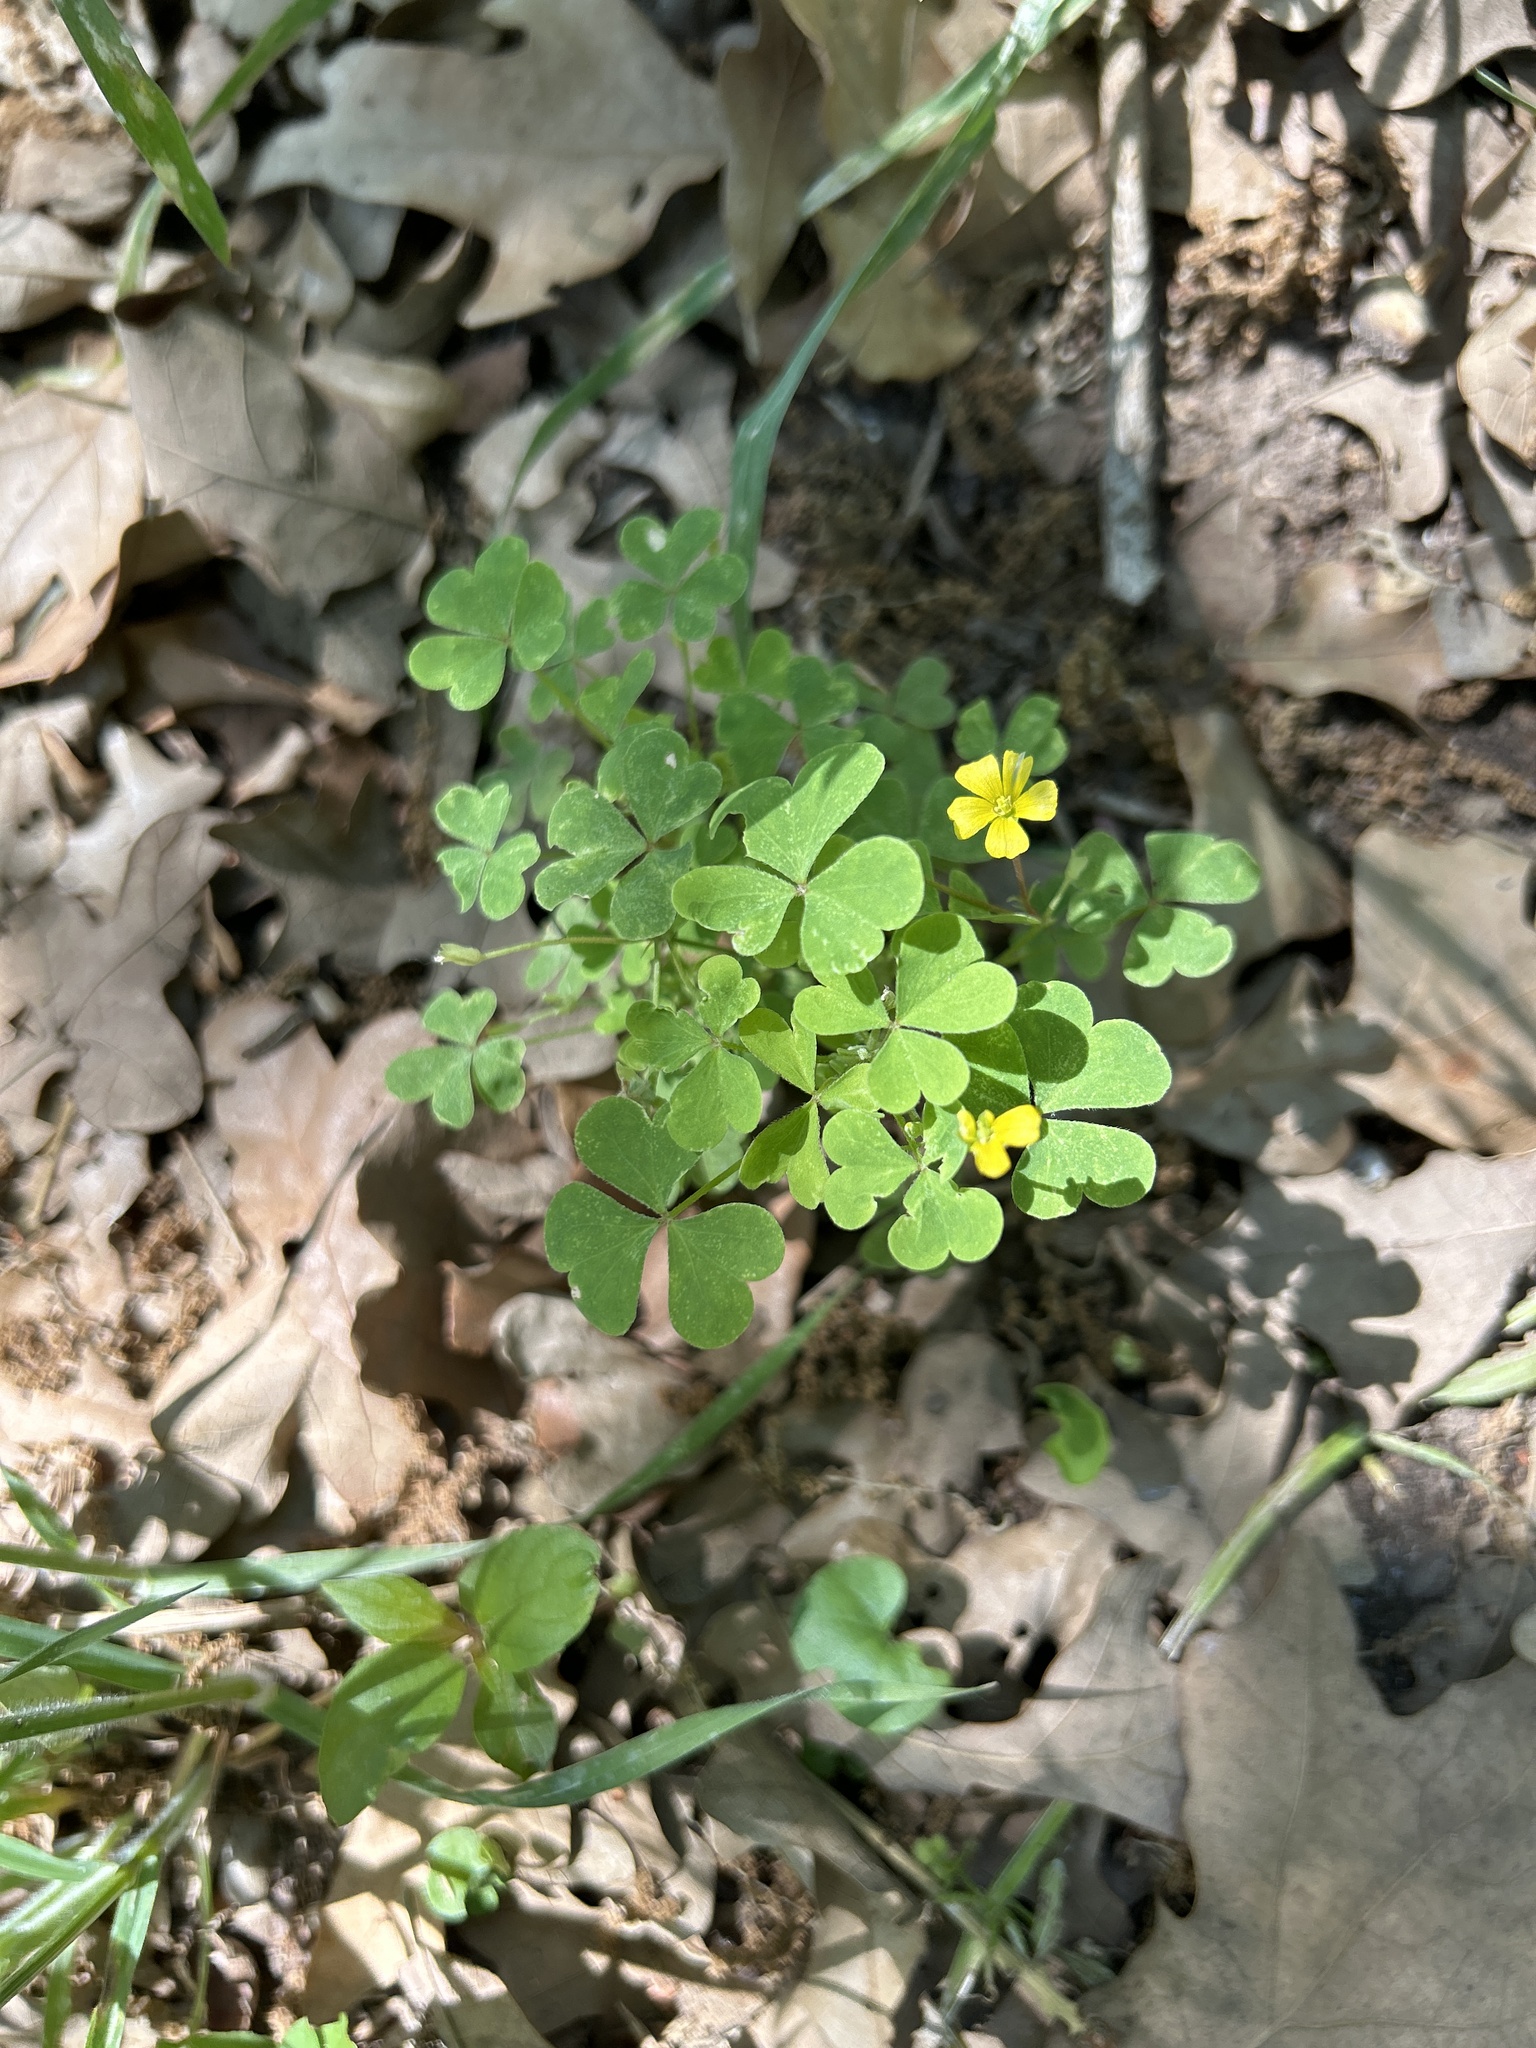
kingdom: Plantae
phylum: Tracheophyta
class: Magnoliopsida
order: Oxalidales
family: Oxalidaceae
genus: Oxalis
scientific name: Oxalis dillenii
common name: Sussex yellow-sorrel
